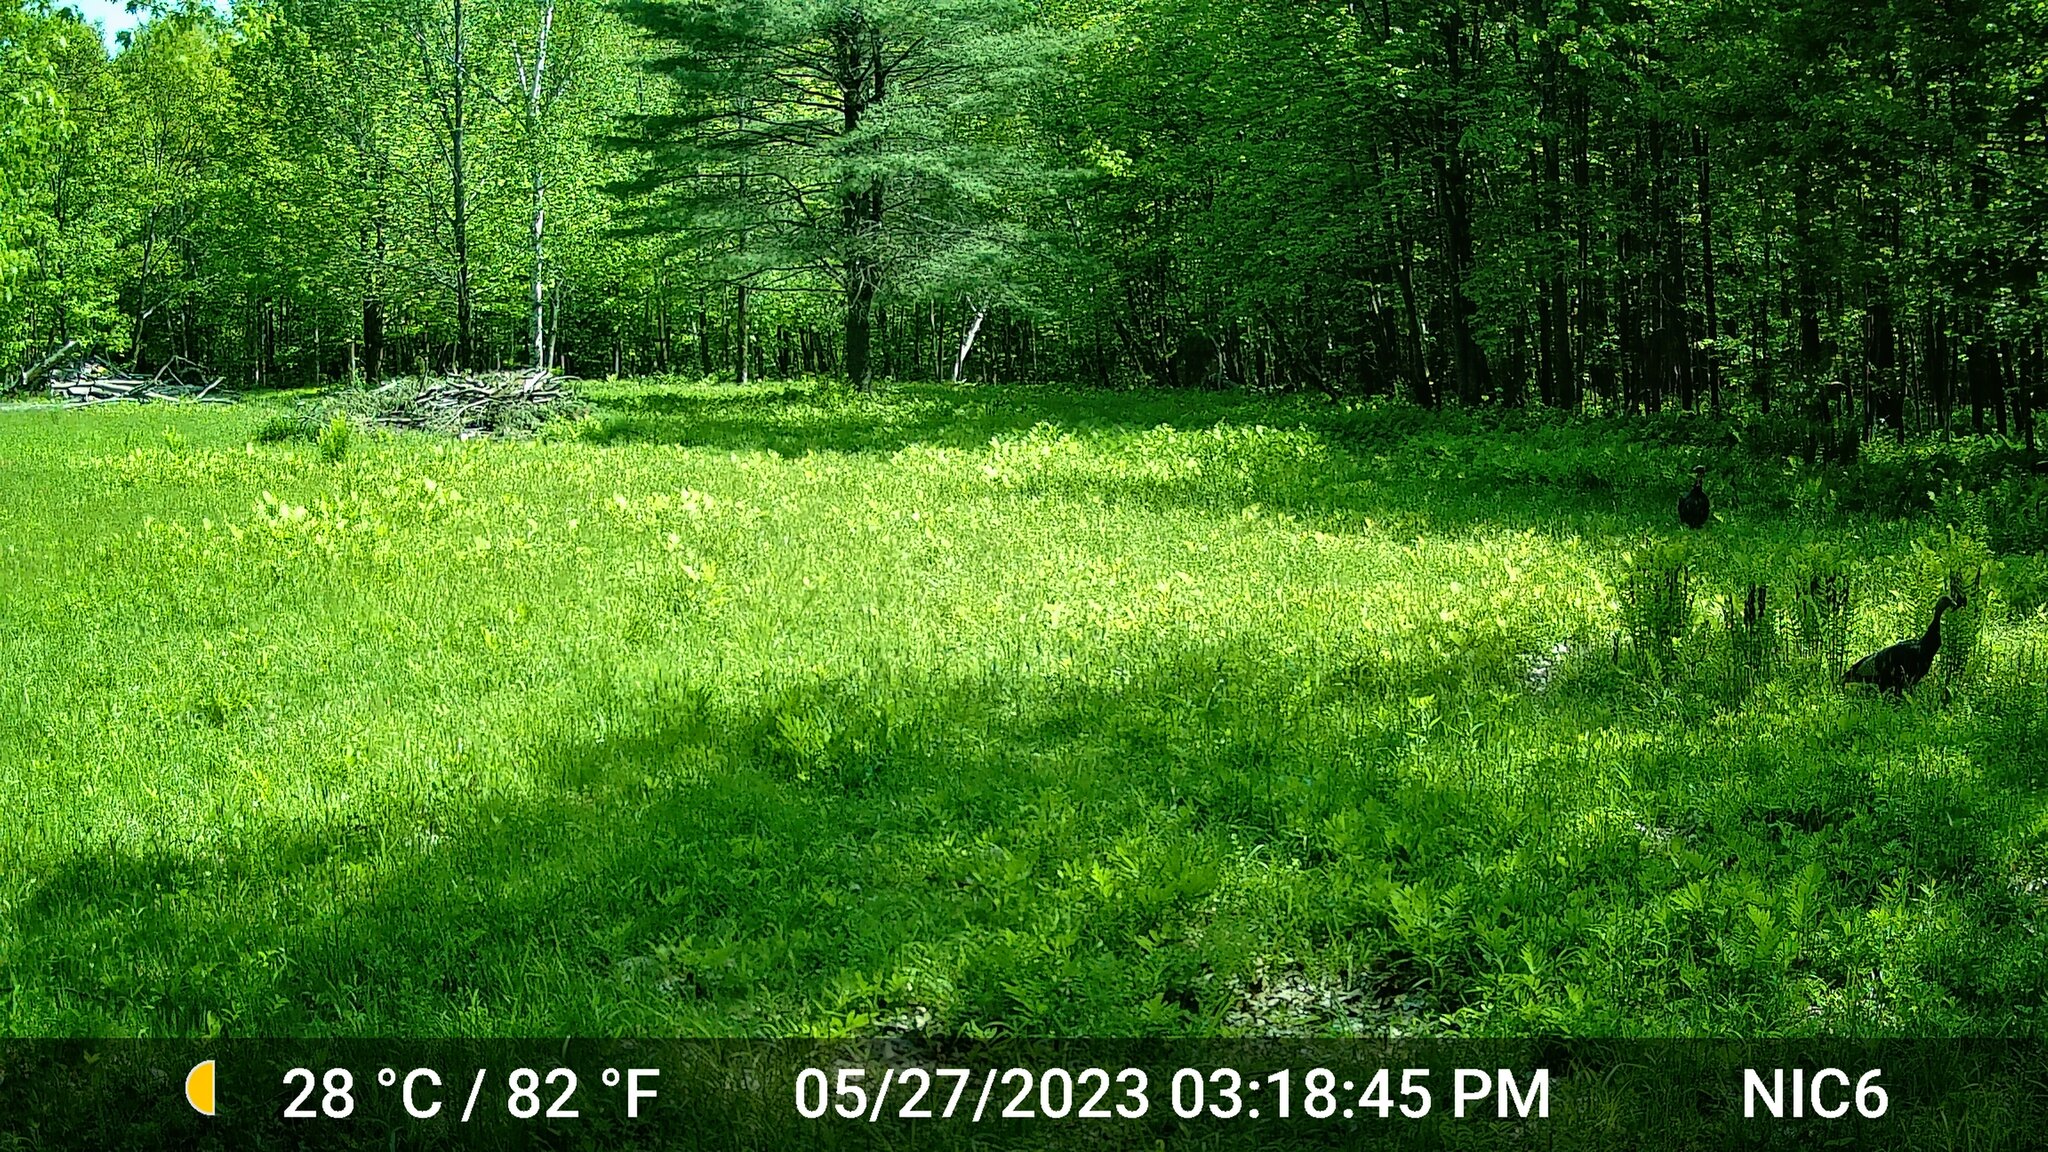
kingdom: Animalia
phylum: Chordata
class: Aves
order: Galliformes
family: Phasianidae
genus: Meleagris
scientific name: Meleagris gallopavo
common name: Wild turkey
